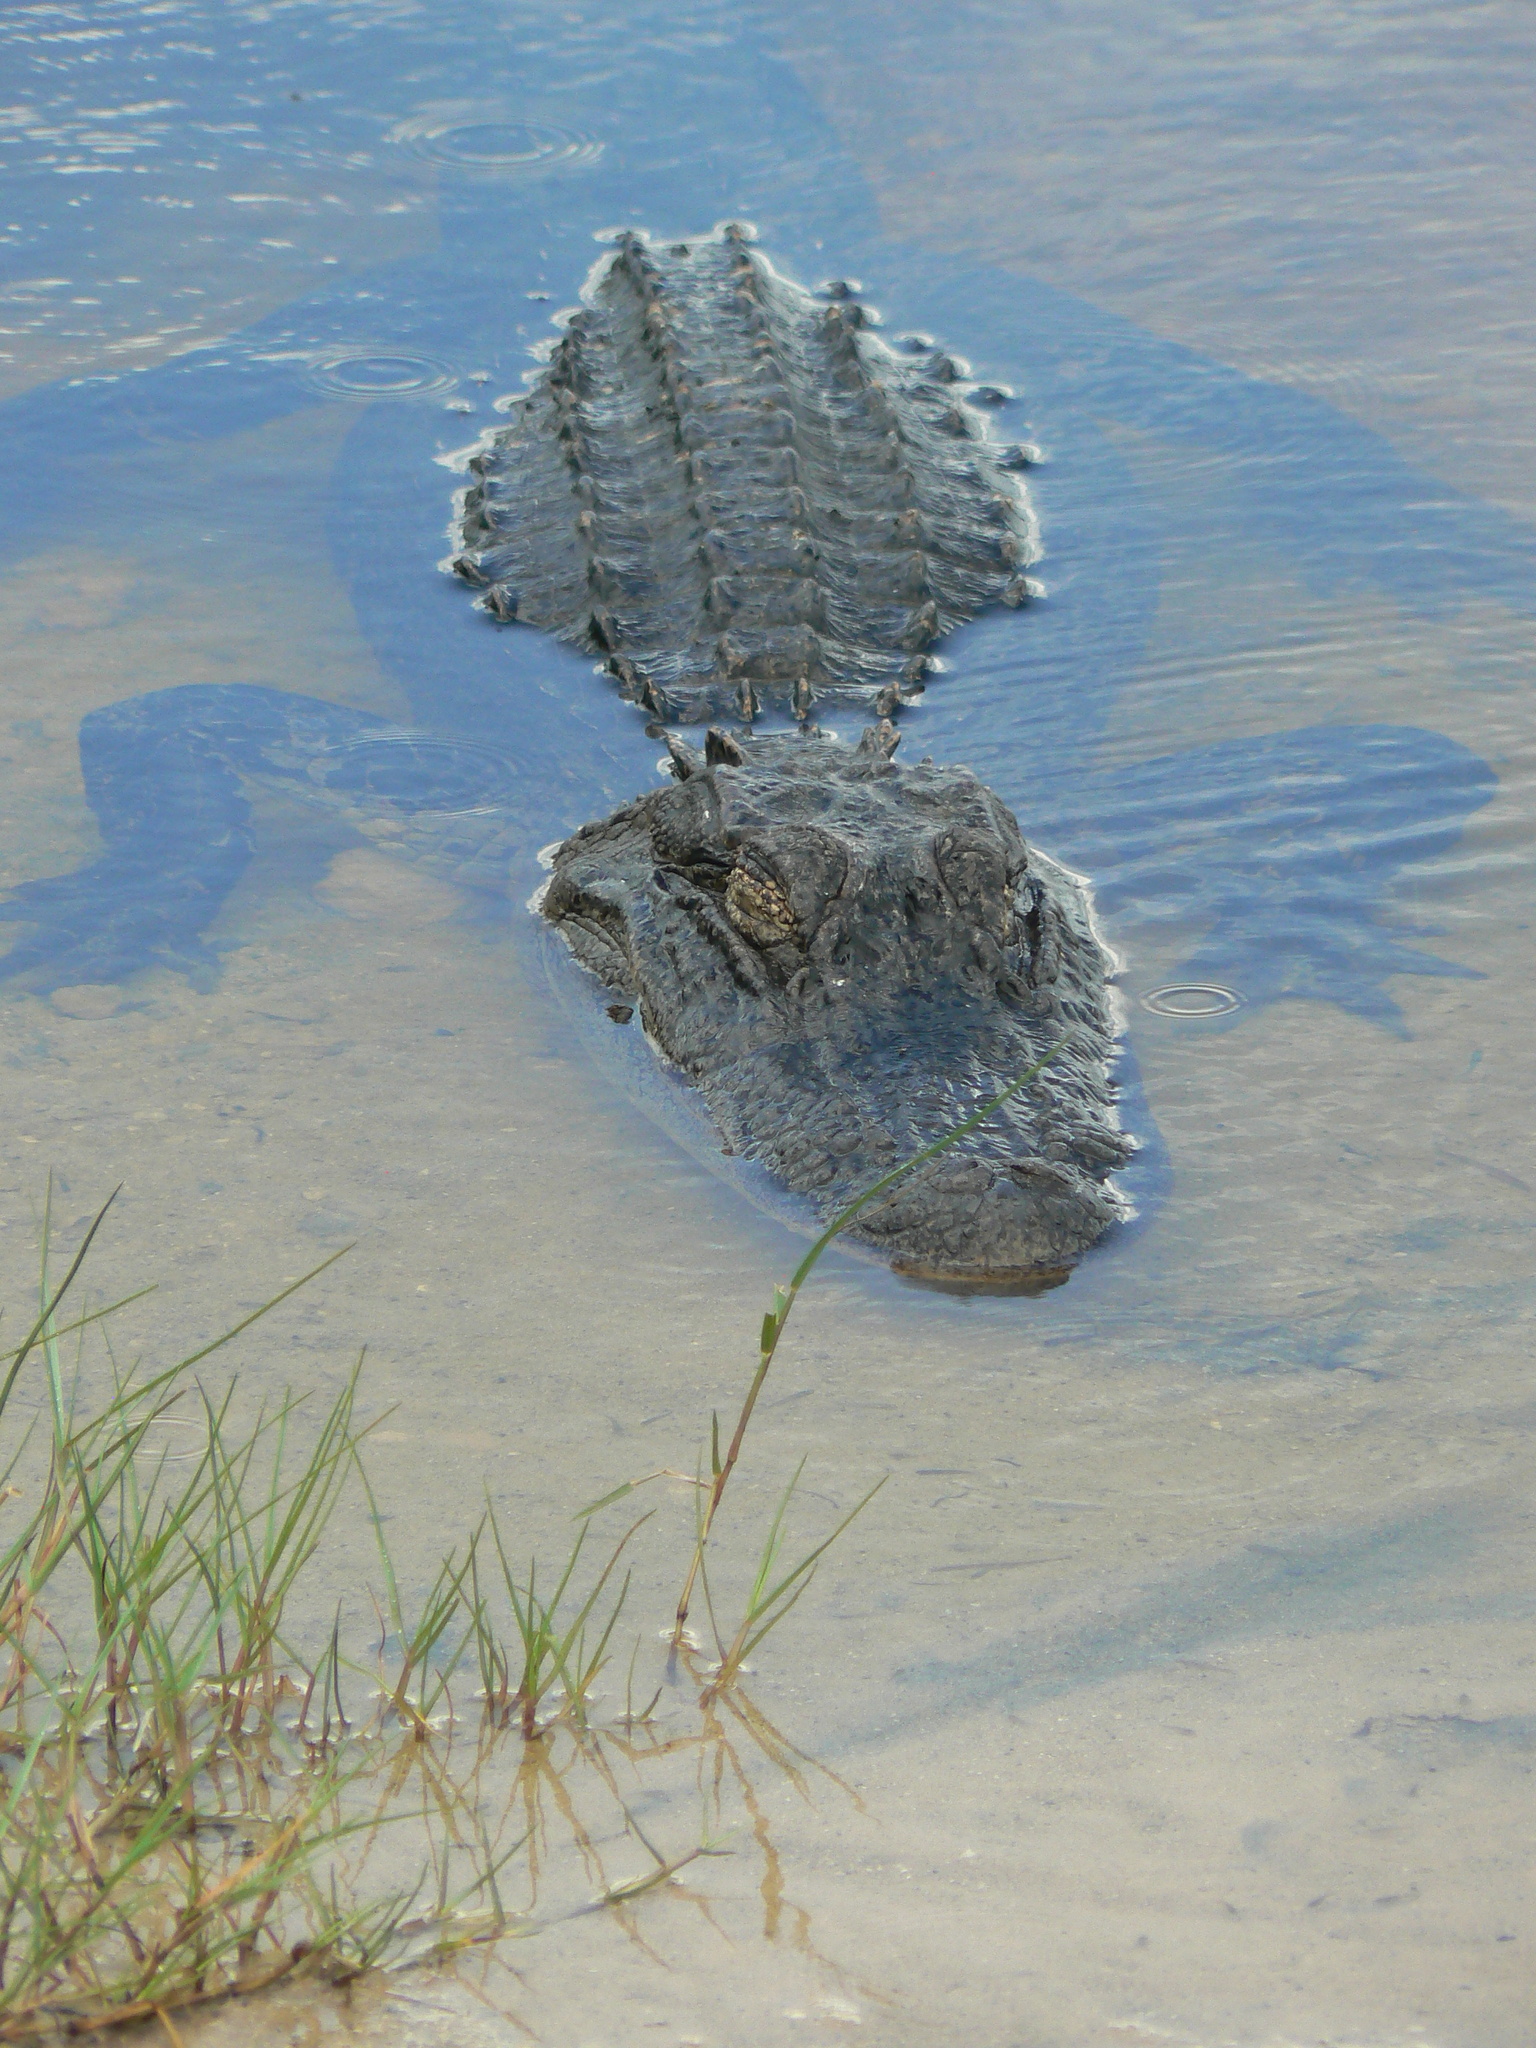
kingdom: Animalia
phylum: Chordata
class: Crocodylia
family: Alligatoridae
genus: Alligator
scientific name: Alligator mississippiensis
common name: American alligator
